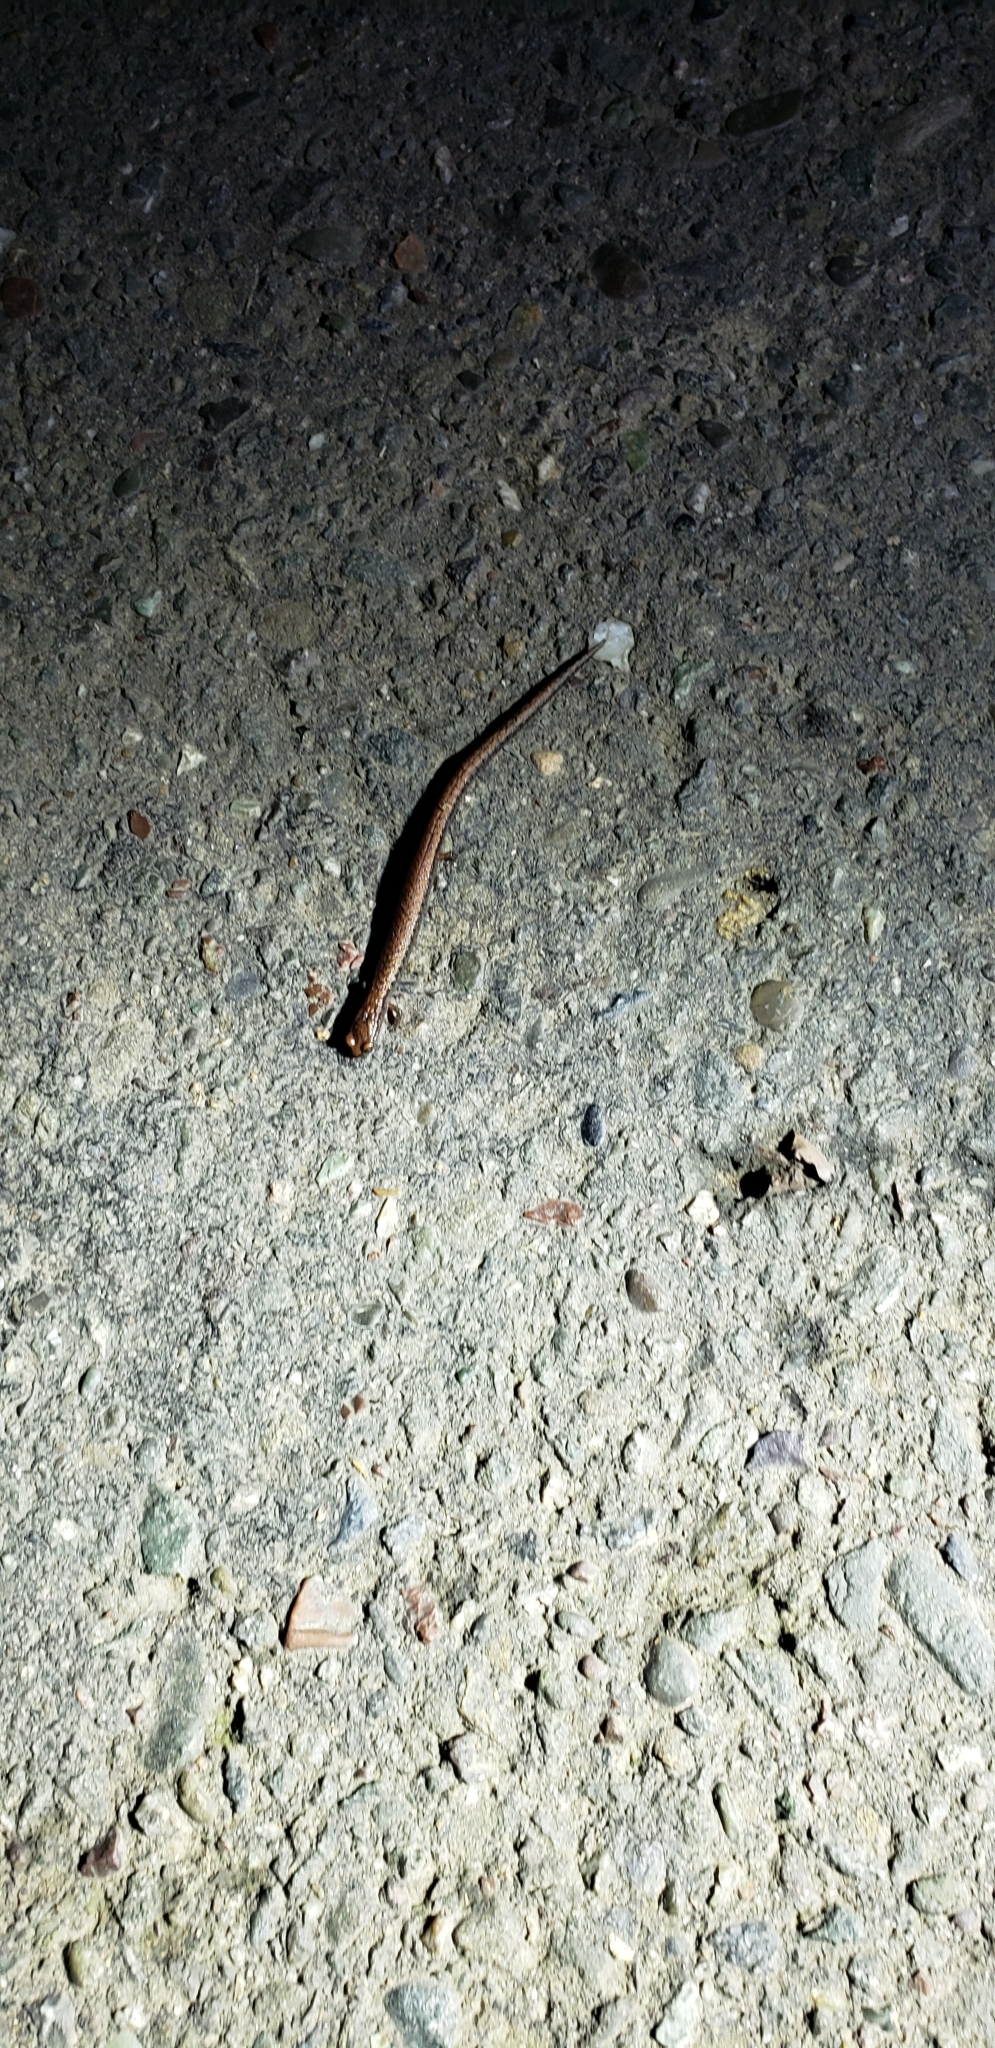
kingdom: Animalia
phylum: Chordata
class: Amphibia
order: Caudata
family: Plethodontidae
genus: Batrachoseps
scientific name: Batrachoseps attenuatus
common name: California slender salamander
